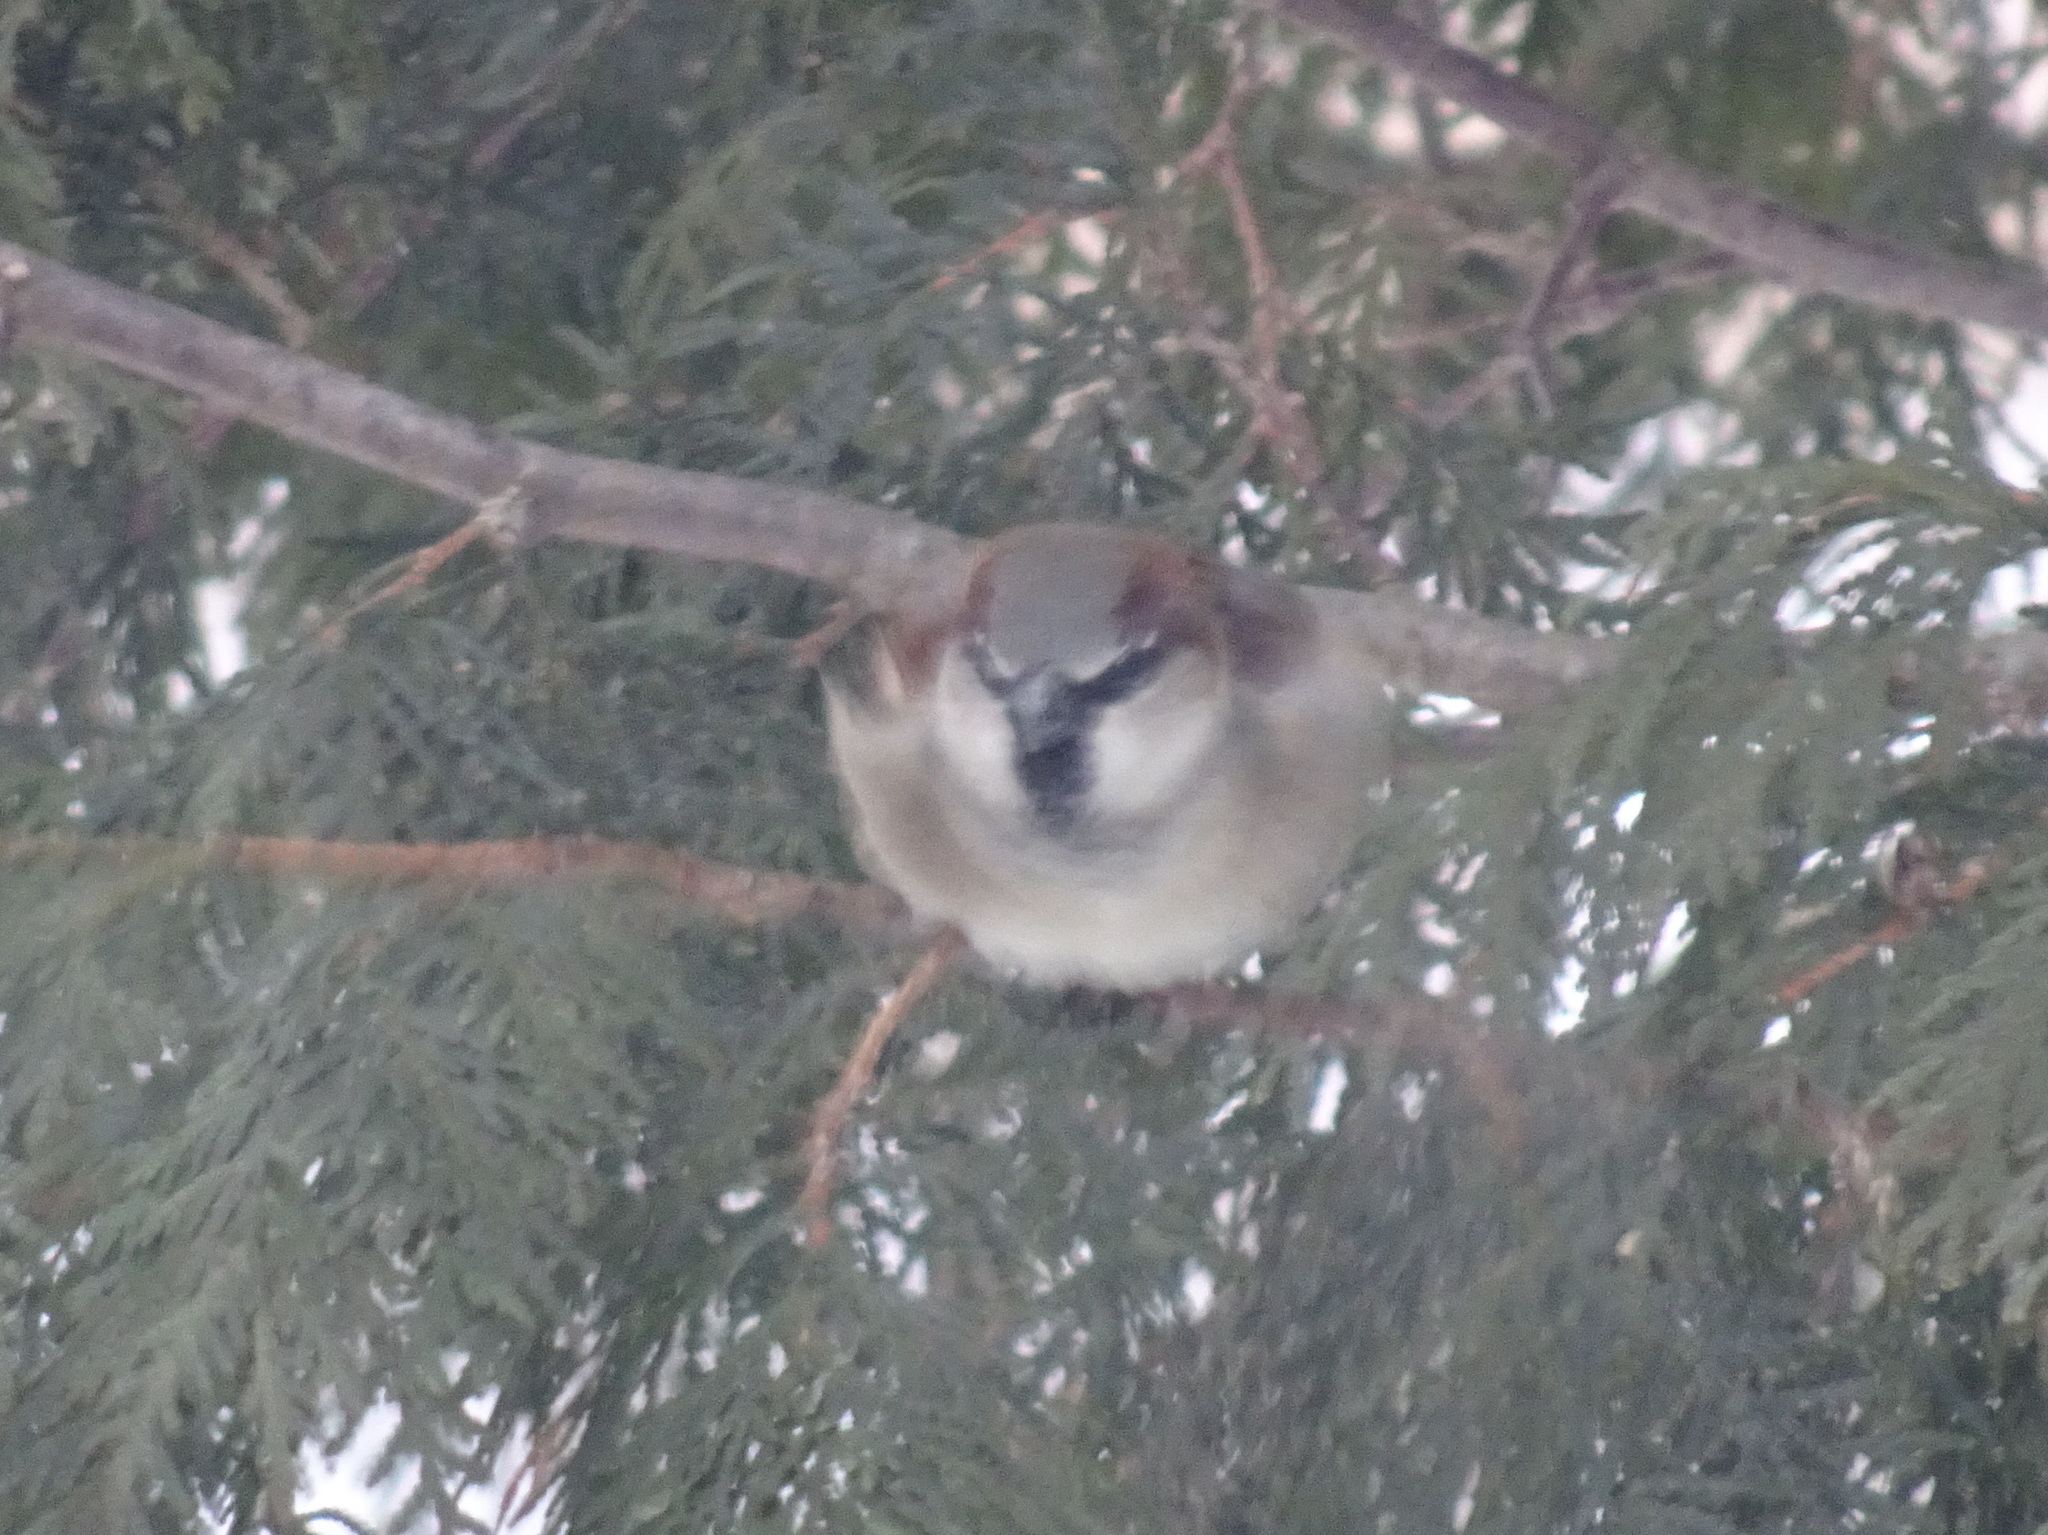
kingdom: Animalia
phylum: Chordata
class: Aves
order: Passeriformes
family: Passeridae
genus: Passer
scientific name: Passer domesticus
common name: House sparrow
